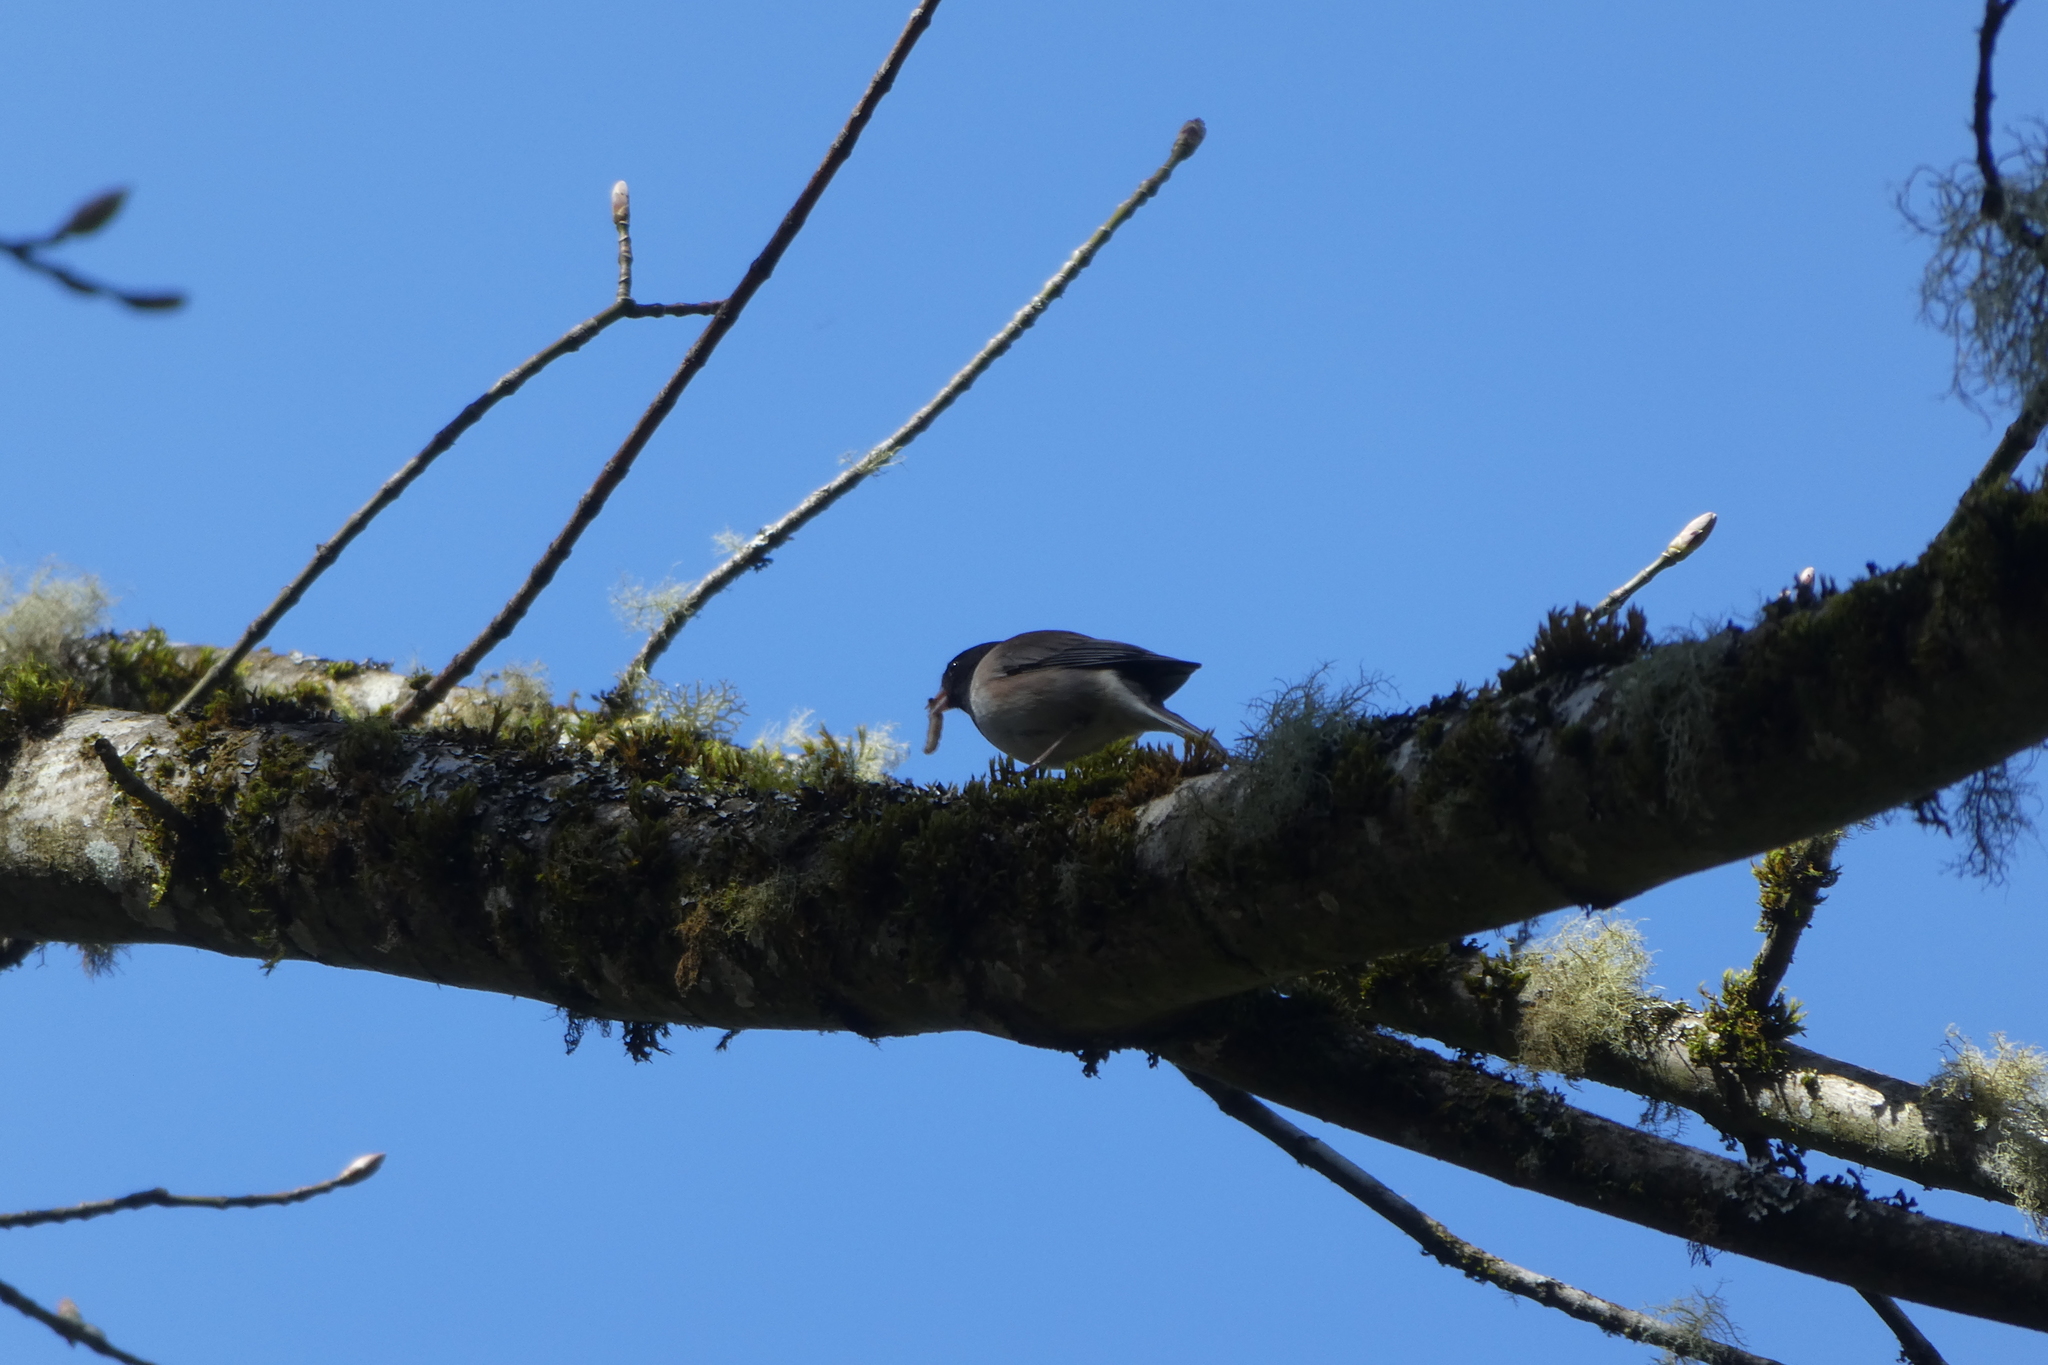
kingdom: Animalia
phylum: Chordata
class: Aves
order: Passeriformes
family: Passerellidae
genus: Junco
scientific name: Junco hyemalis
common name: Dark-eyed junco
